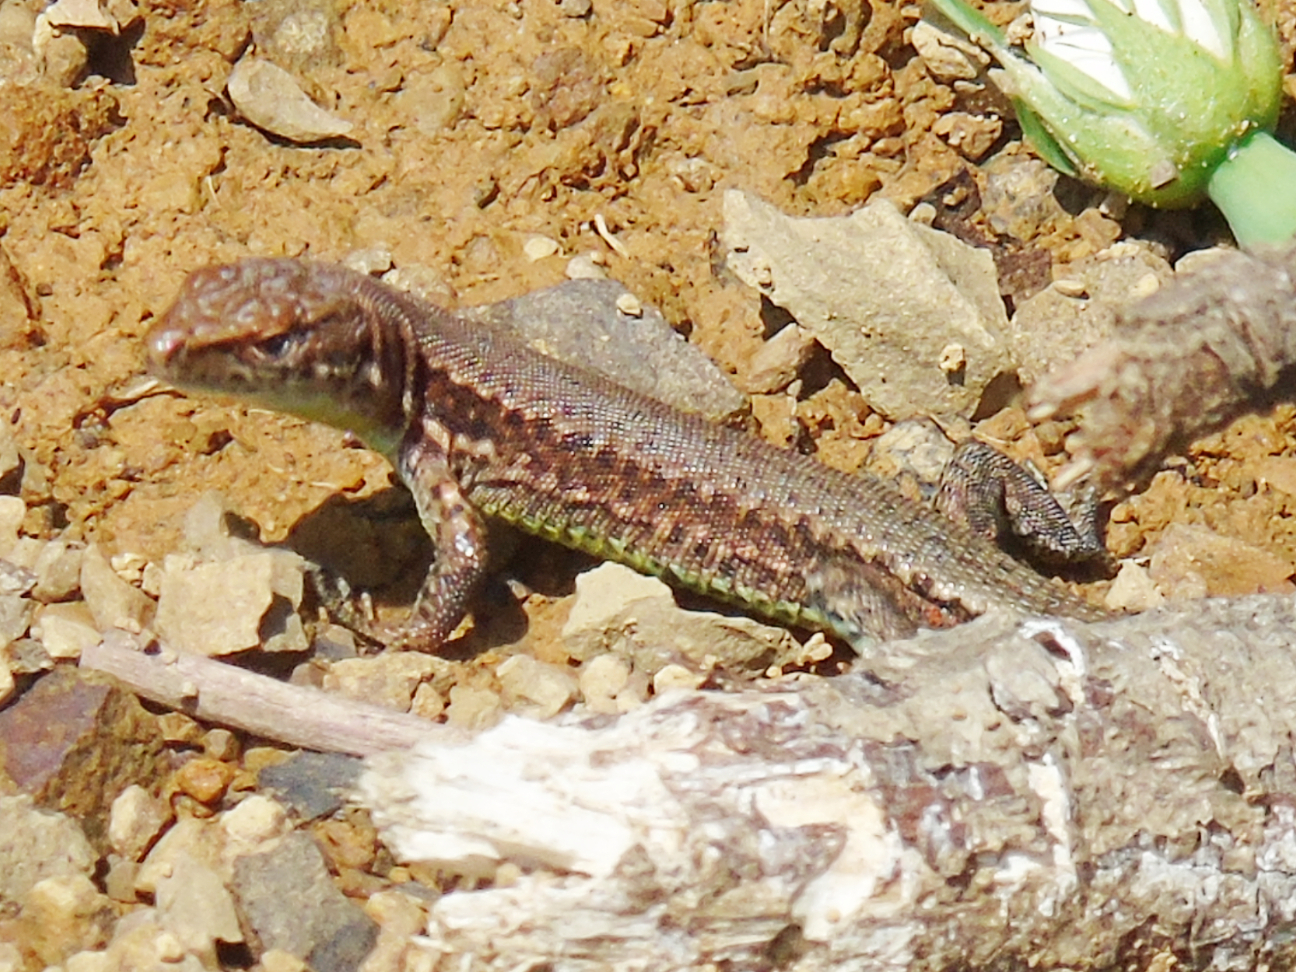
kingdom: Animalia
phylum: Chordata
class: Squamata
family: Lacertidae
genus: Darevskia
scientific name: Darevskia derjugini
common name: Derjugin's lizard
